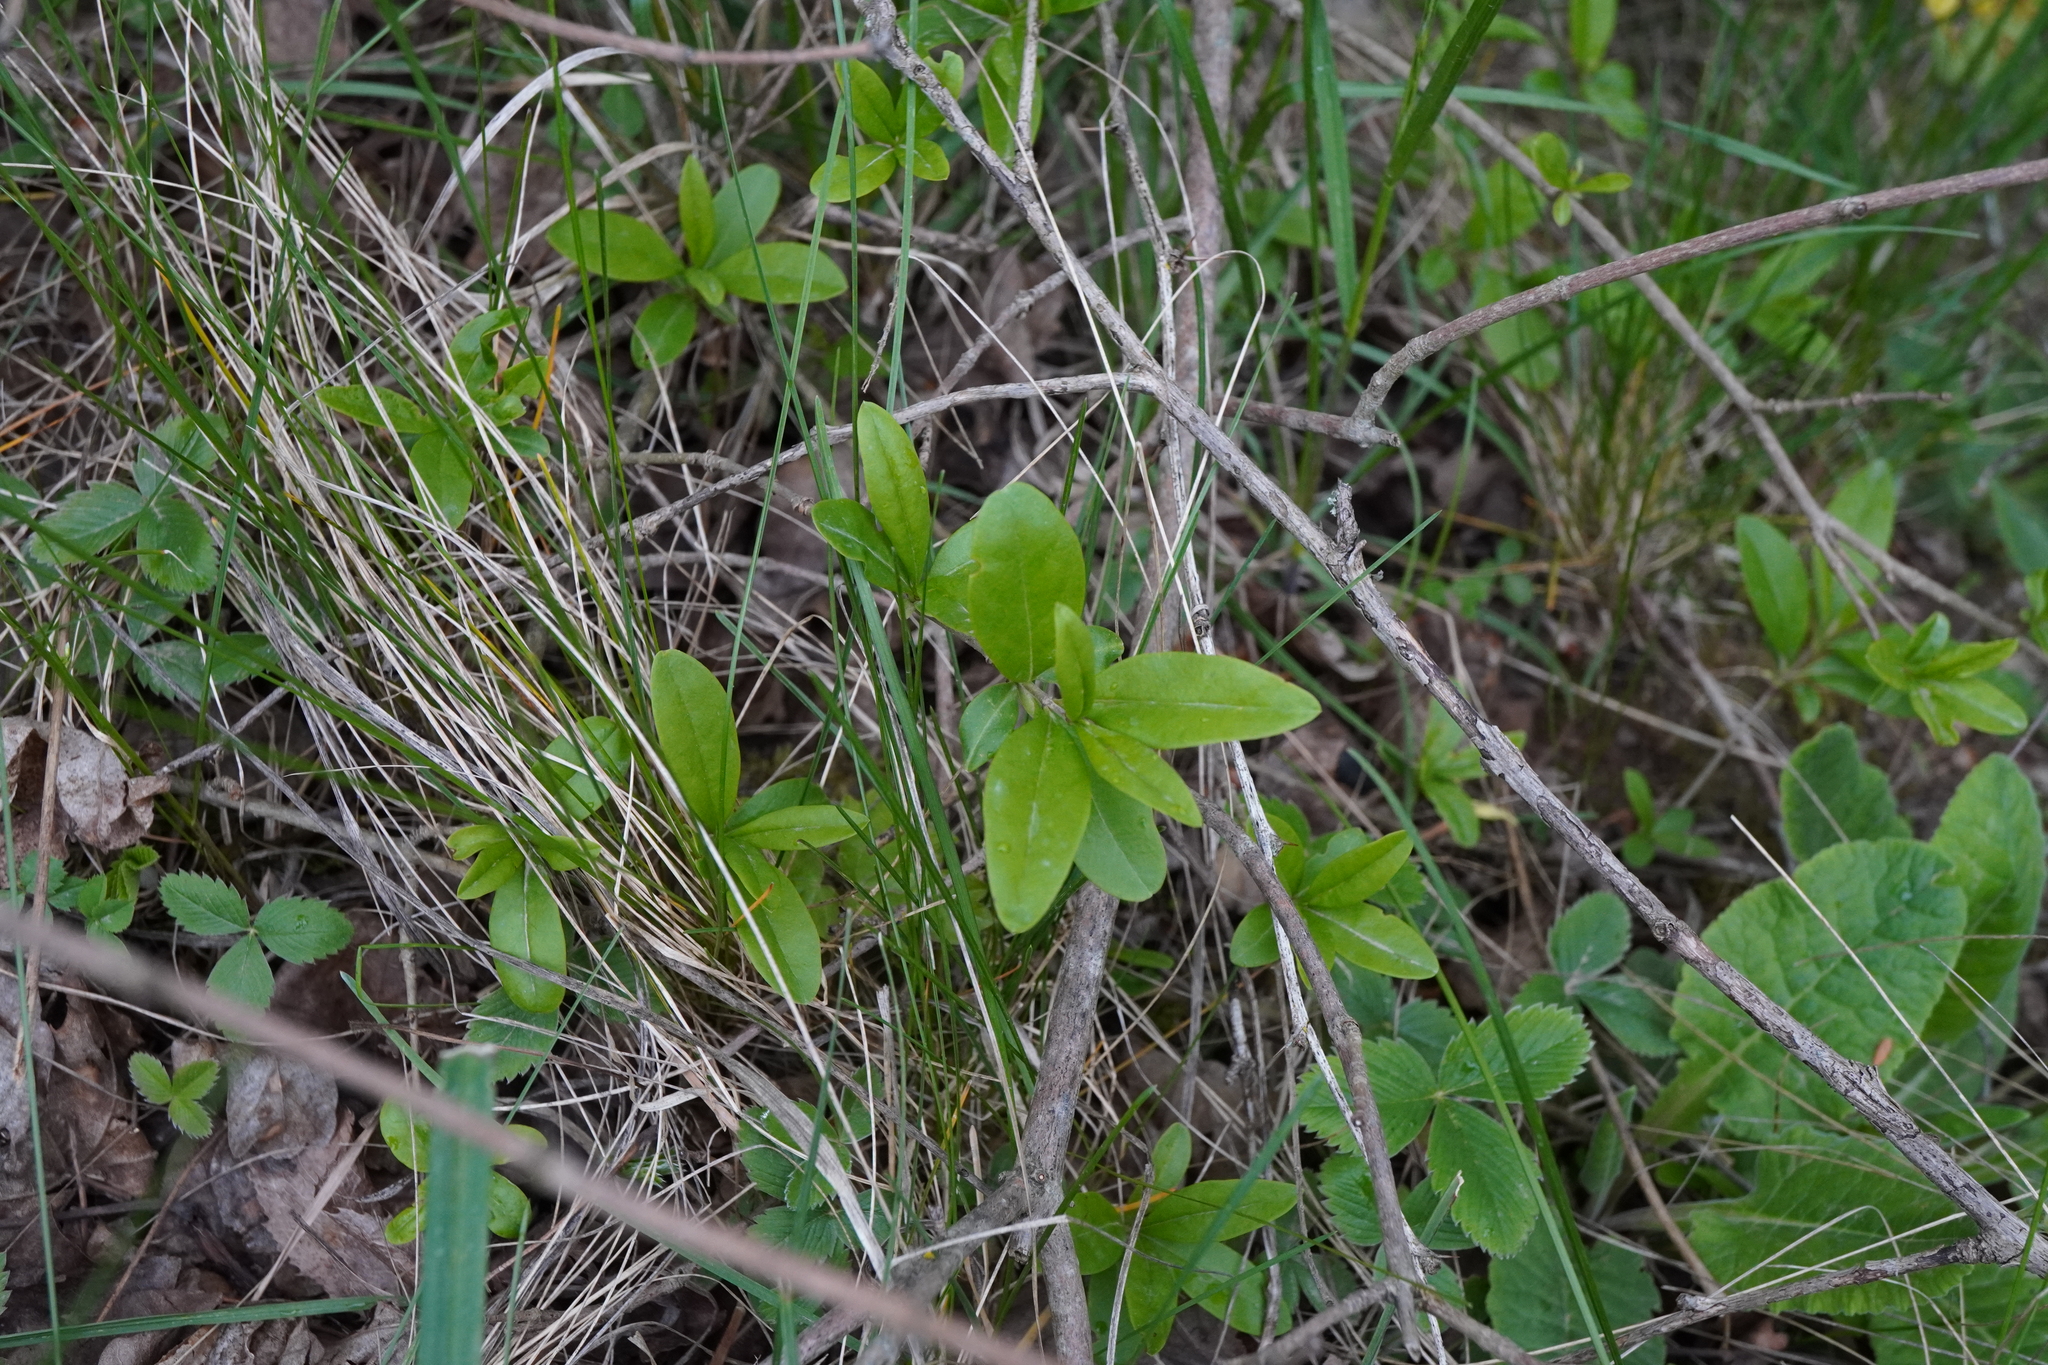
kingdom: Plantae
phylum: Tracheophyta
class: Magnoliopsida
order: Lamiales
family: Oleaceae
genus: Ligustrum
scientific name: Ligustrum vulgare
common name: Wild privet
